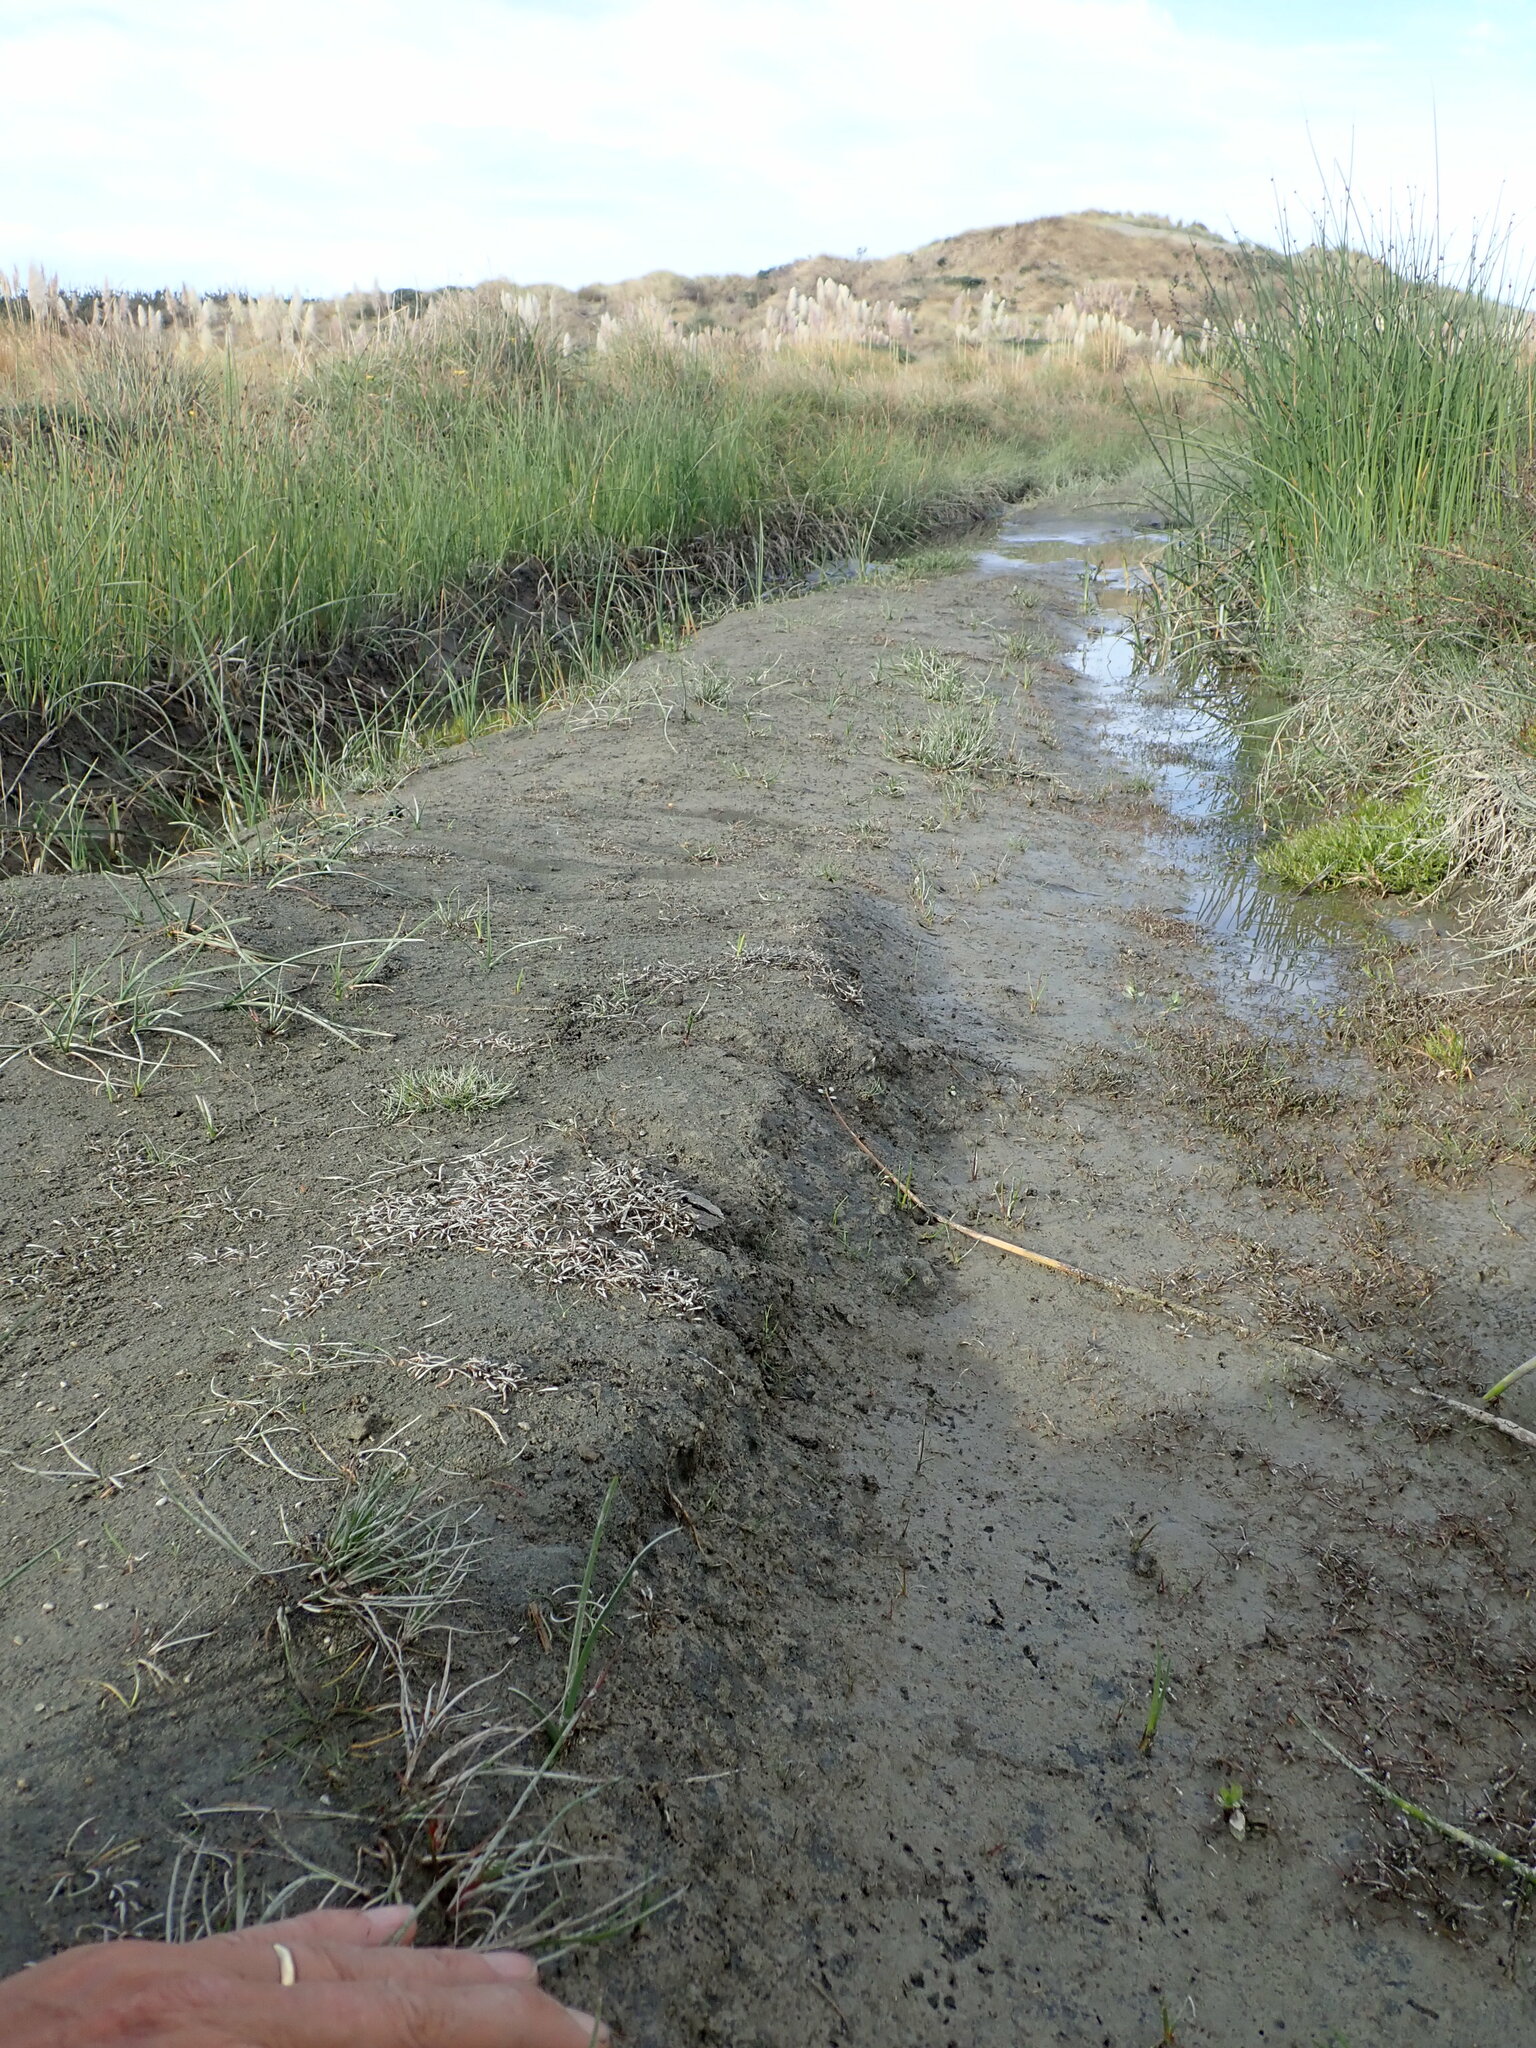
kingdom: Plantae
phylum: Tracheophyta
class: Magnoliopsida
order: Lamiales
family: Scrophulariaceae
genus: Limosella
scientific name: Limosella australis
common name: Welsh mudwort
